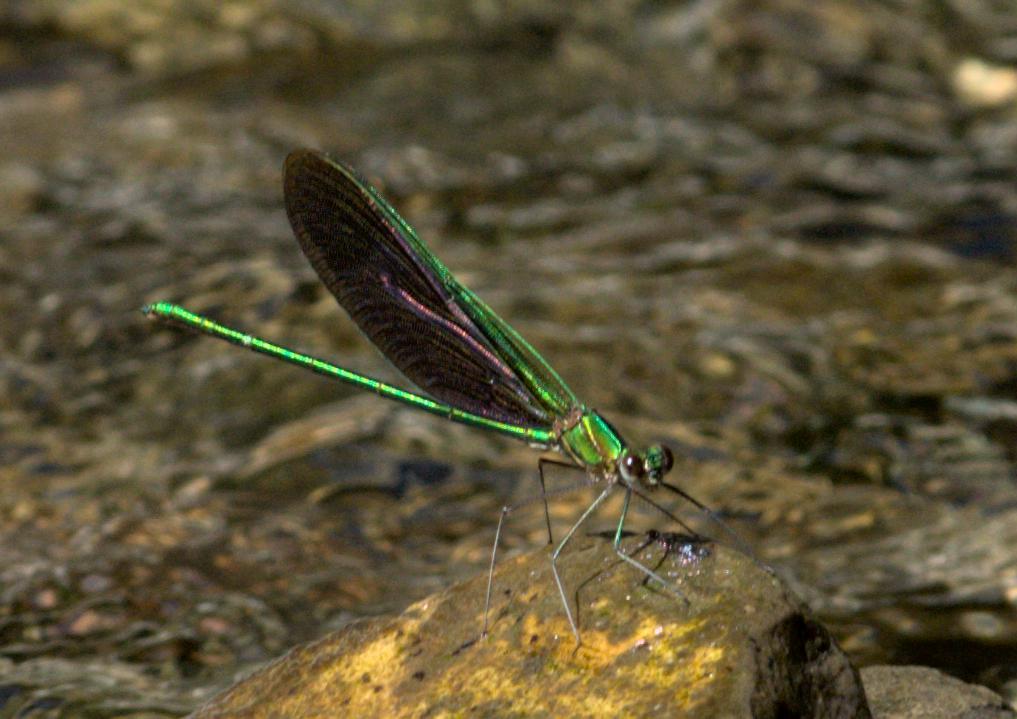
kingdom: Animalia
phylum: Arthropoda
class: Insecta
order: Odonata
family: Calopterygidae
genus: Neurobasis
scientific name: Neurobasis chinensis
